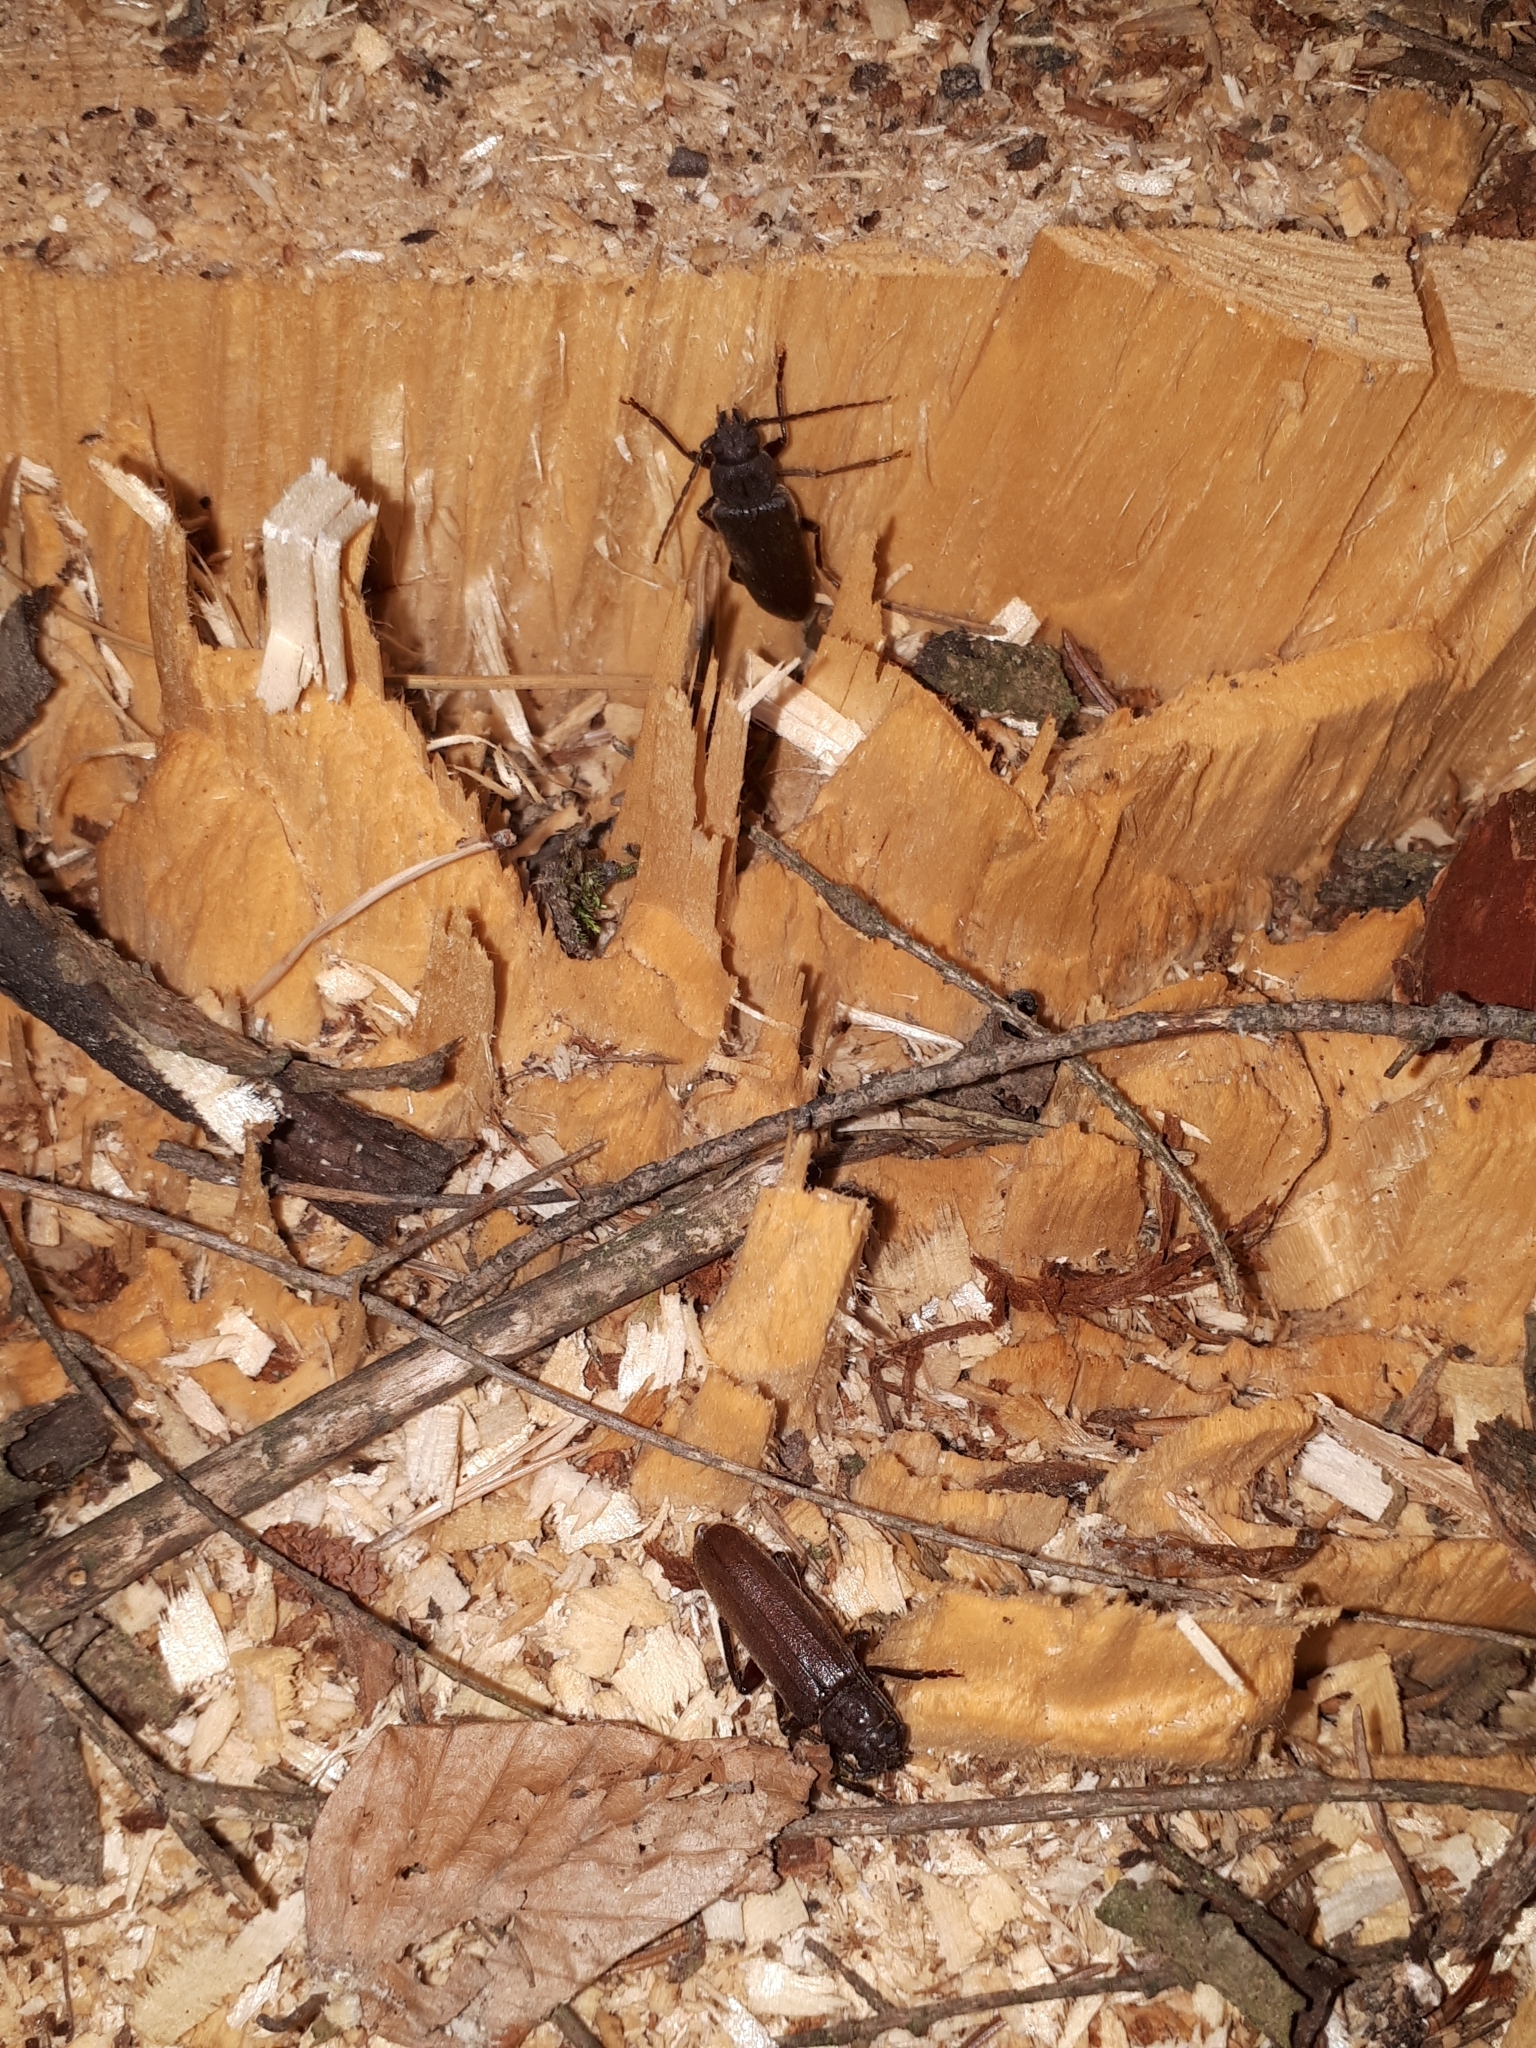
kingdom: Animalia
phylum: Arthropoda
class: Insecta
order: Coleoptera
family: Cerambycidae
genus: Arhopalus
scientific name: Arhopalus rusticus
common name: Rust pine borer
